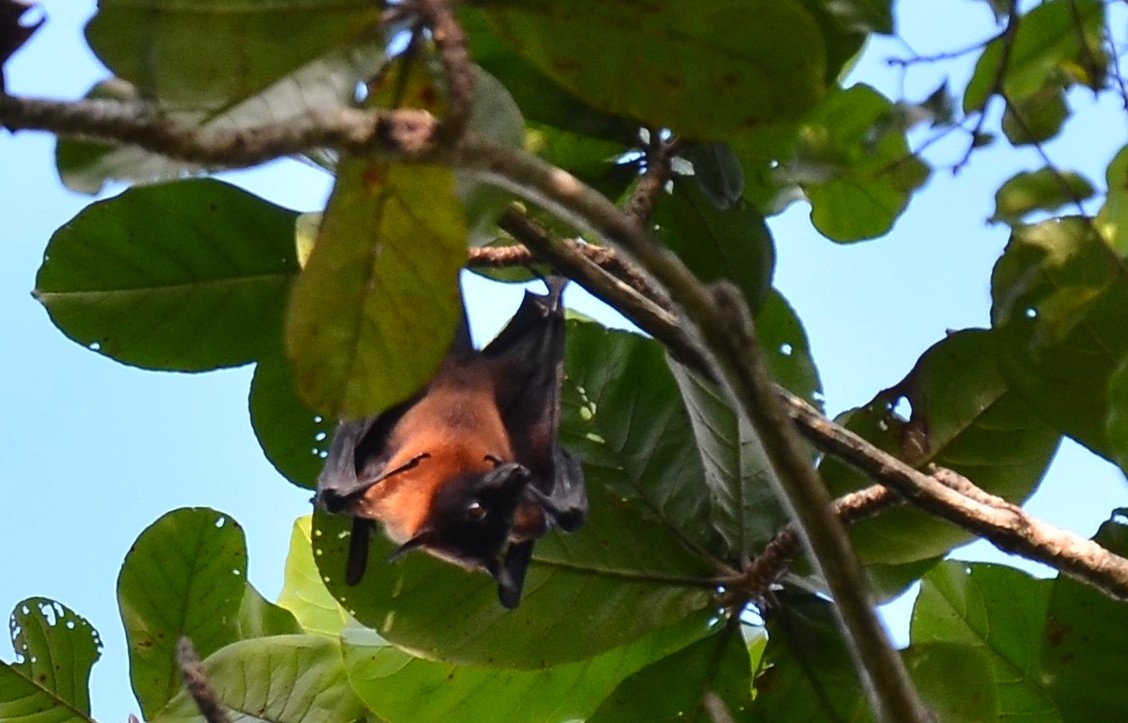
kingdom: Animalia
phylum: Chordata
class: Mammalia
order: Chiroptera
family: Pteropodidae
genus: Pteropus
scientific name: Pteropus vampyrus
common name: Large flying fox
